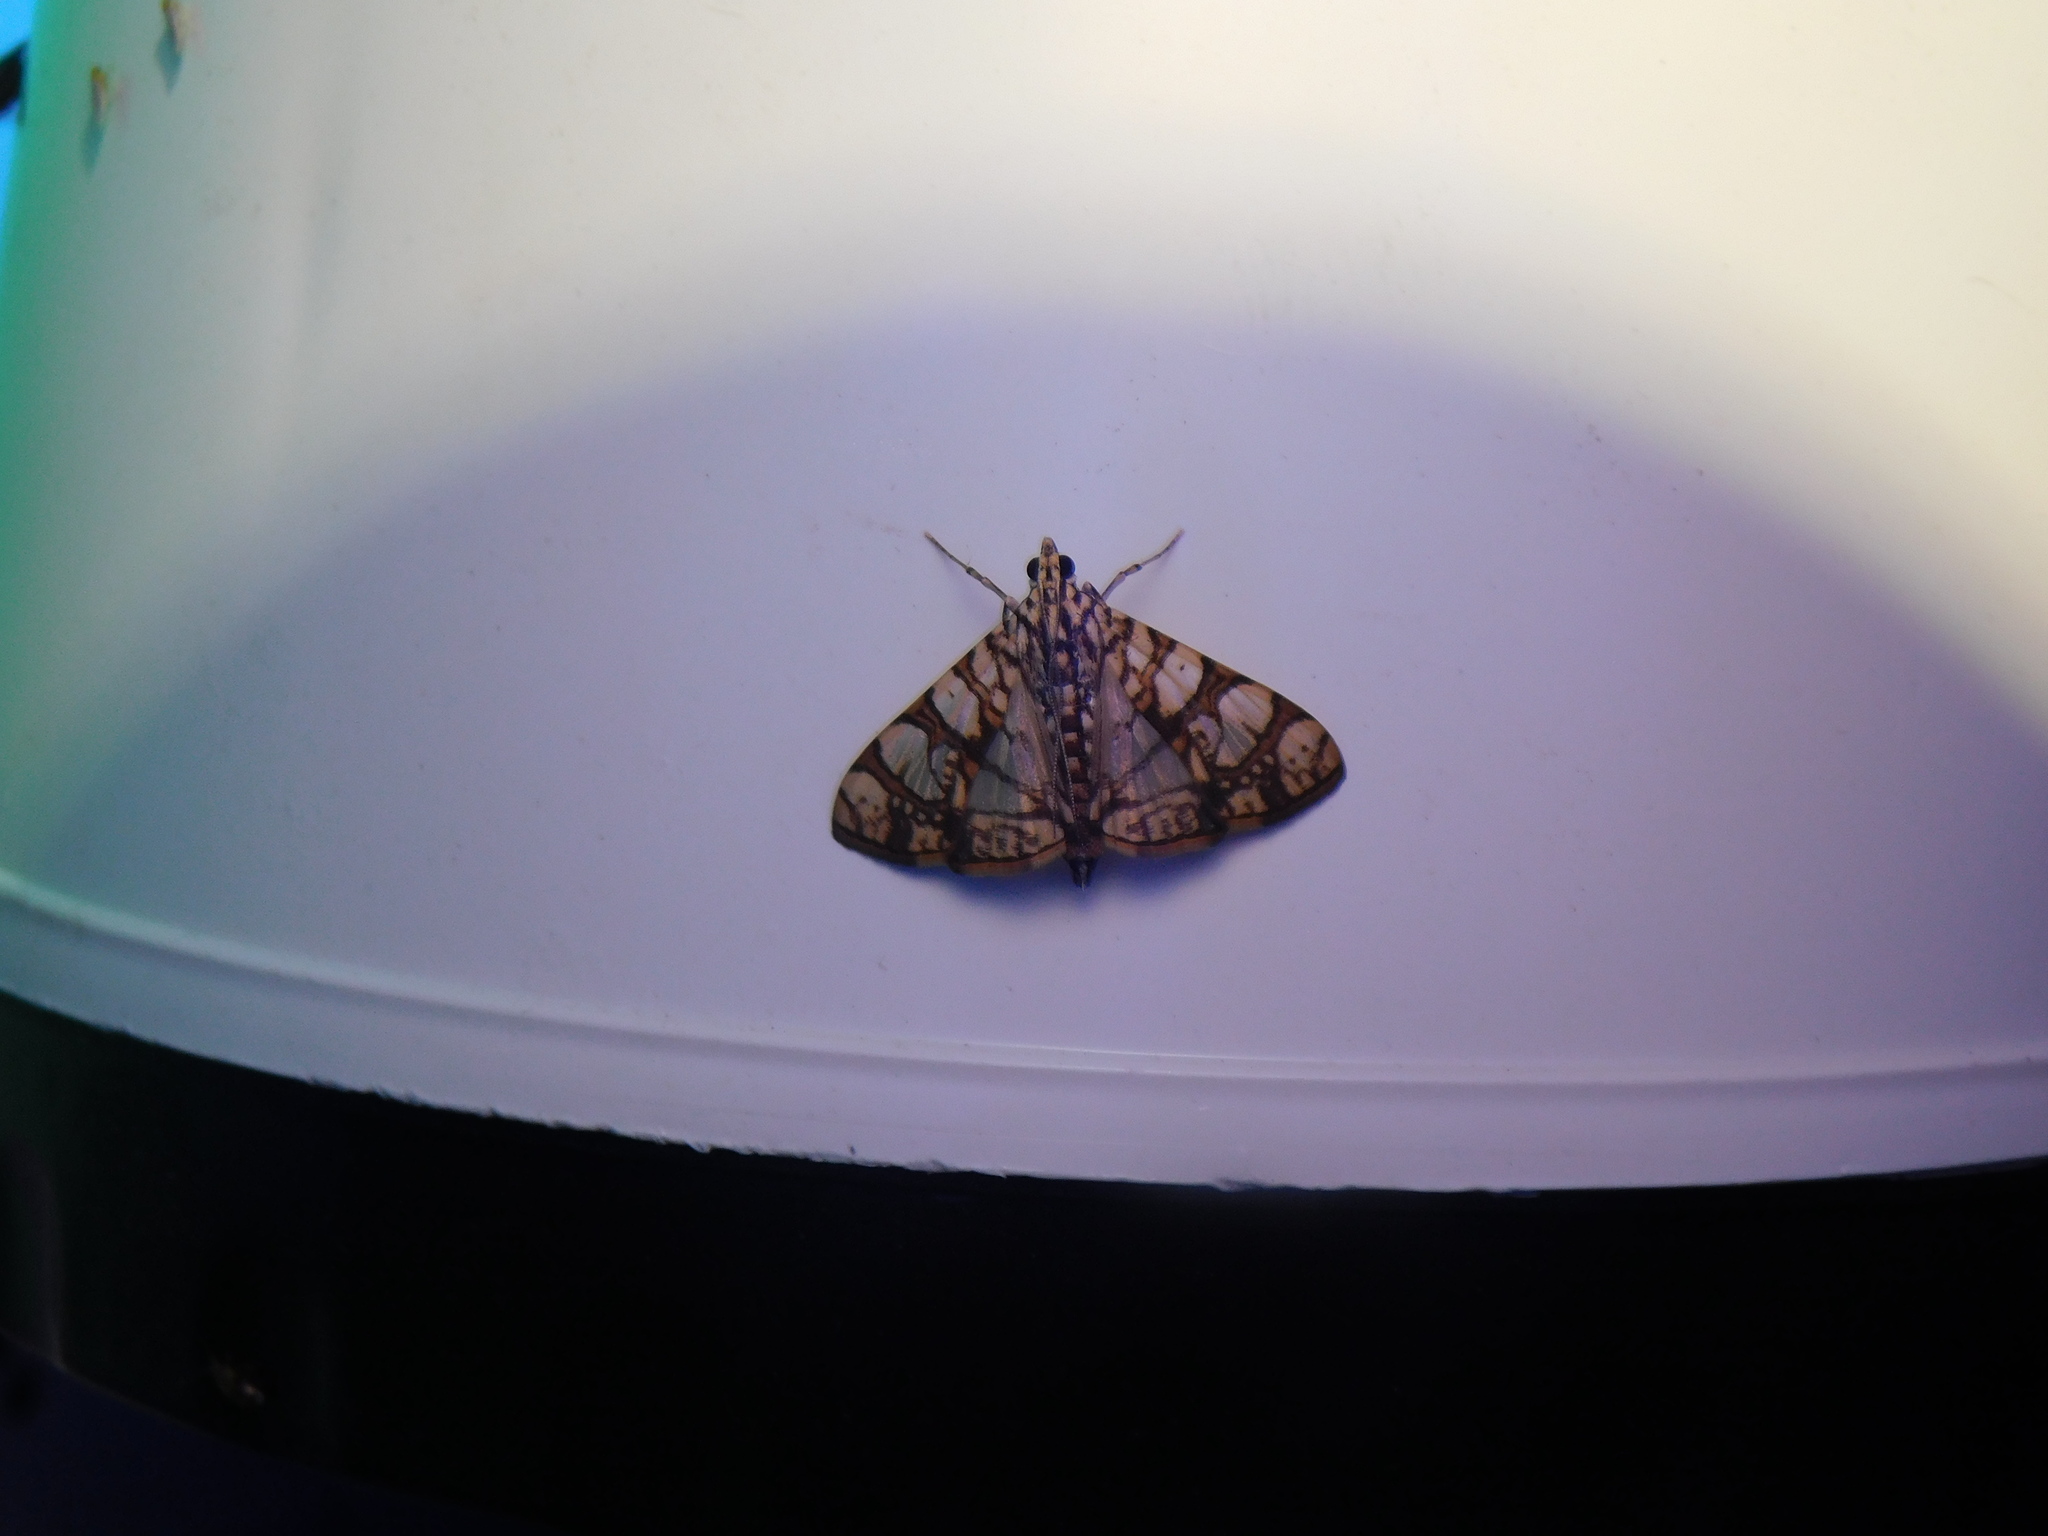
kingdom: Animalia
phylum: Arthropoda
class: Insecta
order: Lepidoptera
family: Crambidae
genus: Glyphodes
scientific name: Glyphodes caesalis
